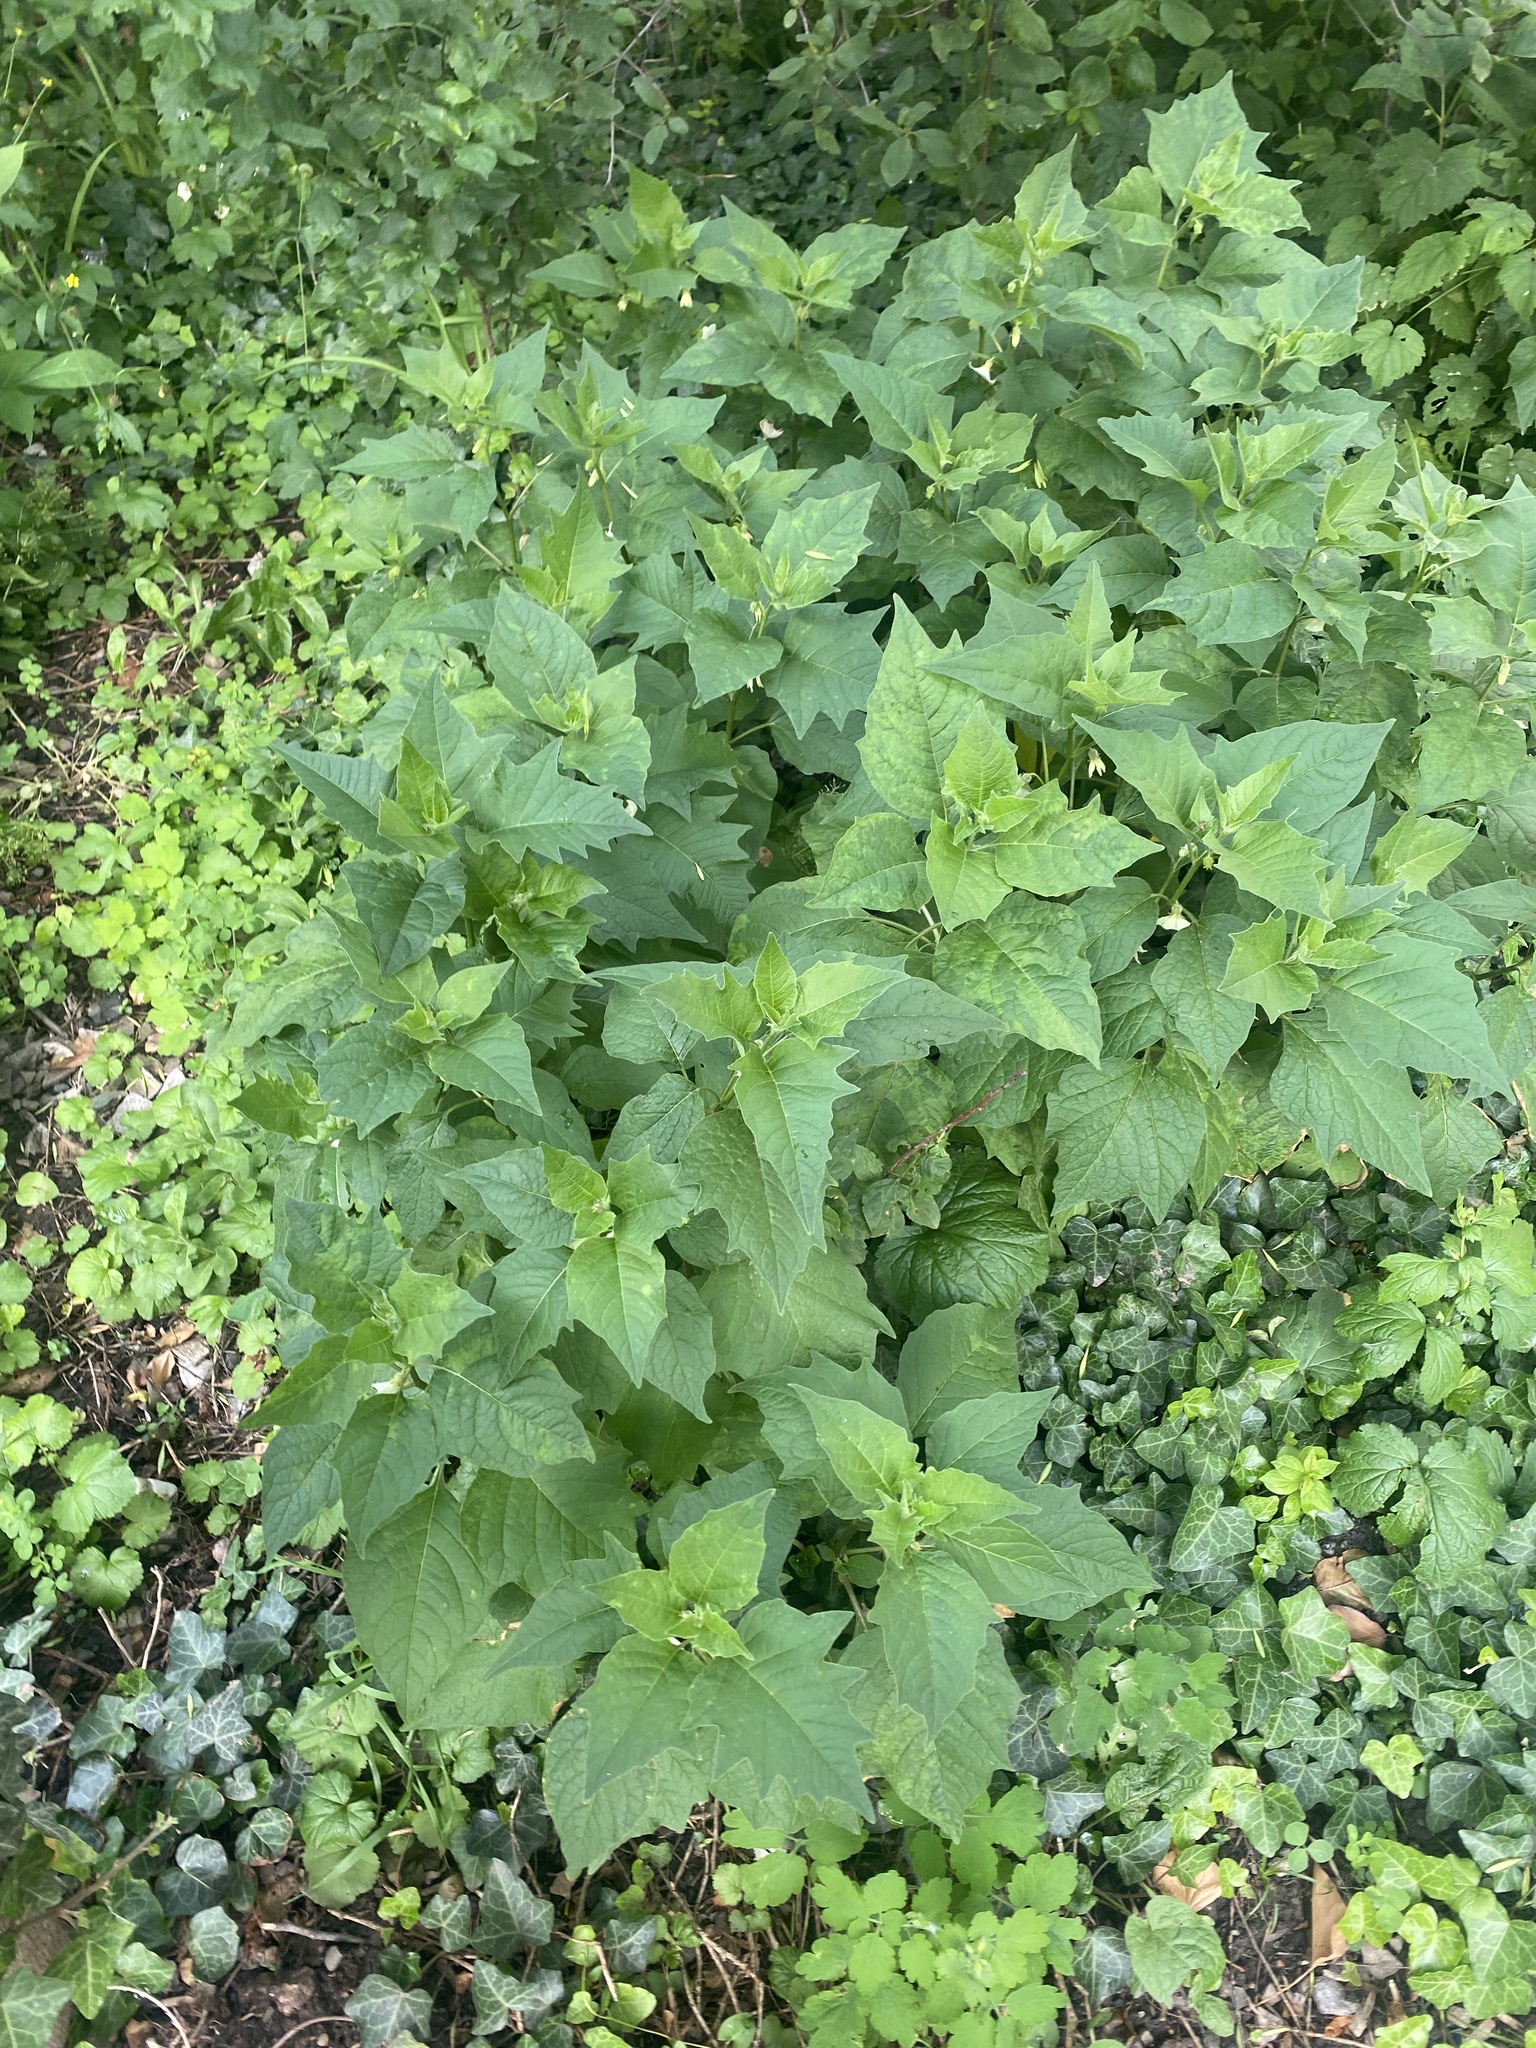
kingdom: Plantae
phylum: Tracheophyta
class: Magnoliopsida
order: Solanales
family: Solanaceae
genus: Alkekengi
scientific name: Alkekengi officinarum
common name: Japanese-lantern
